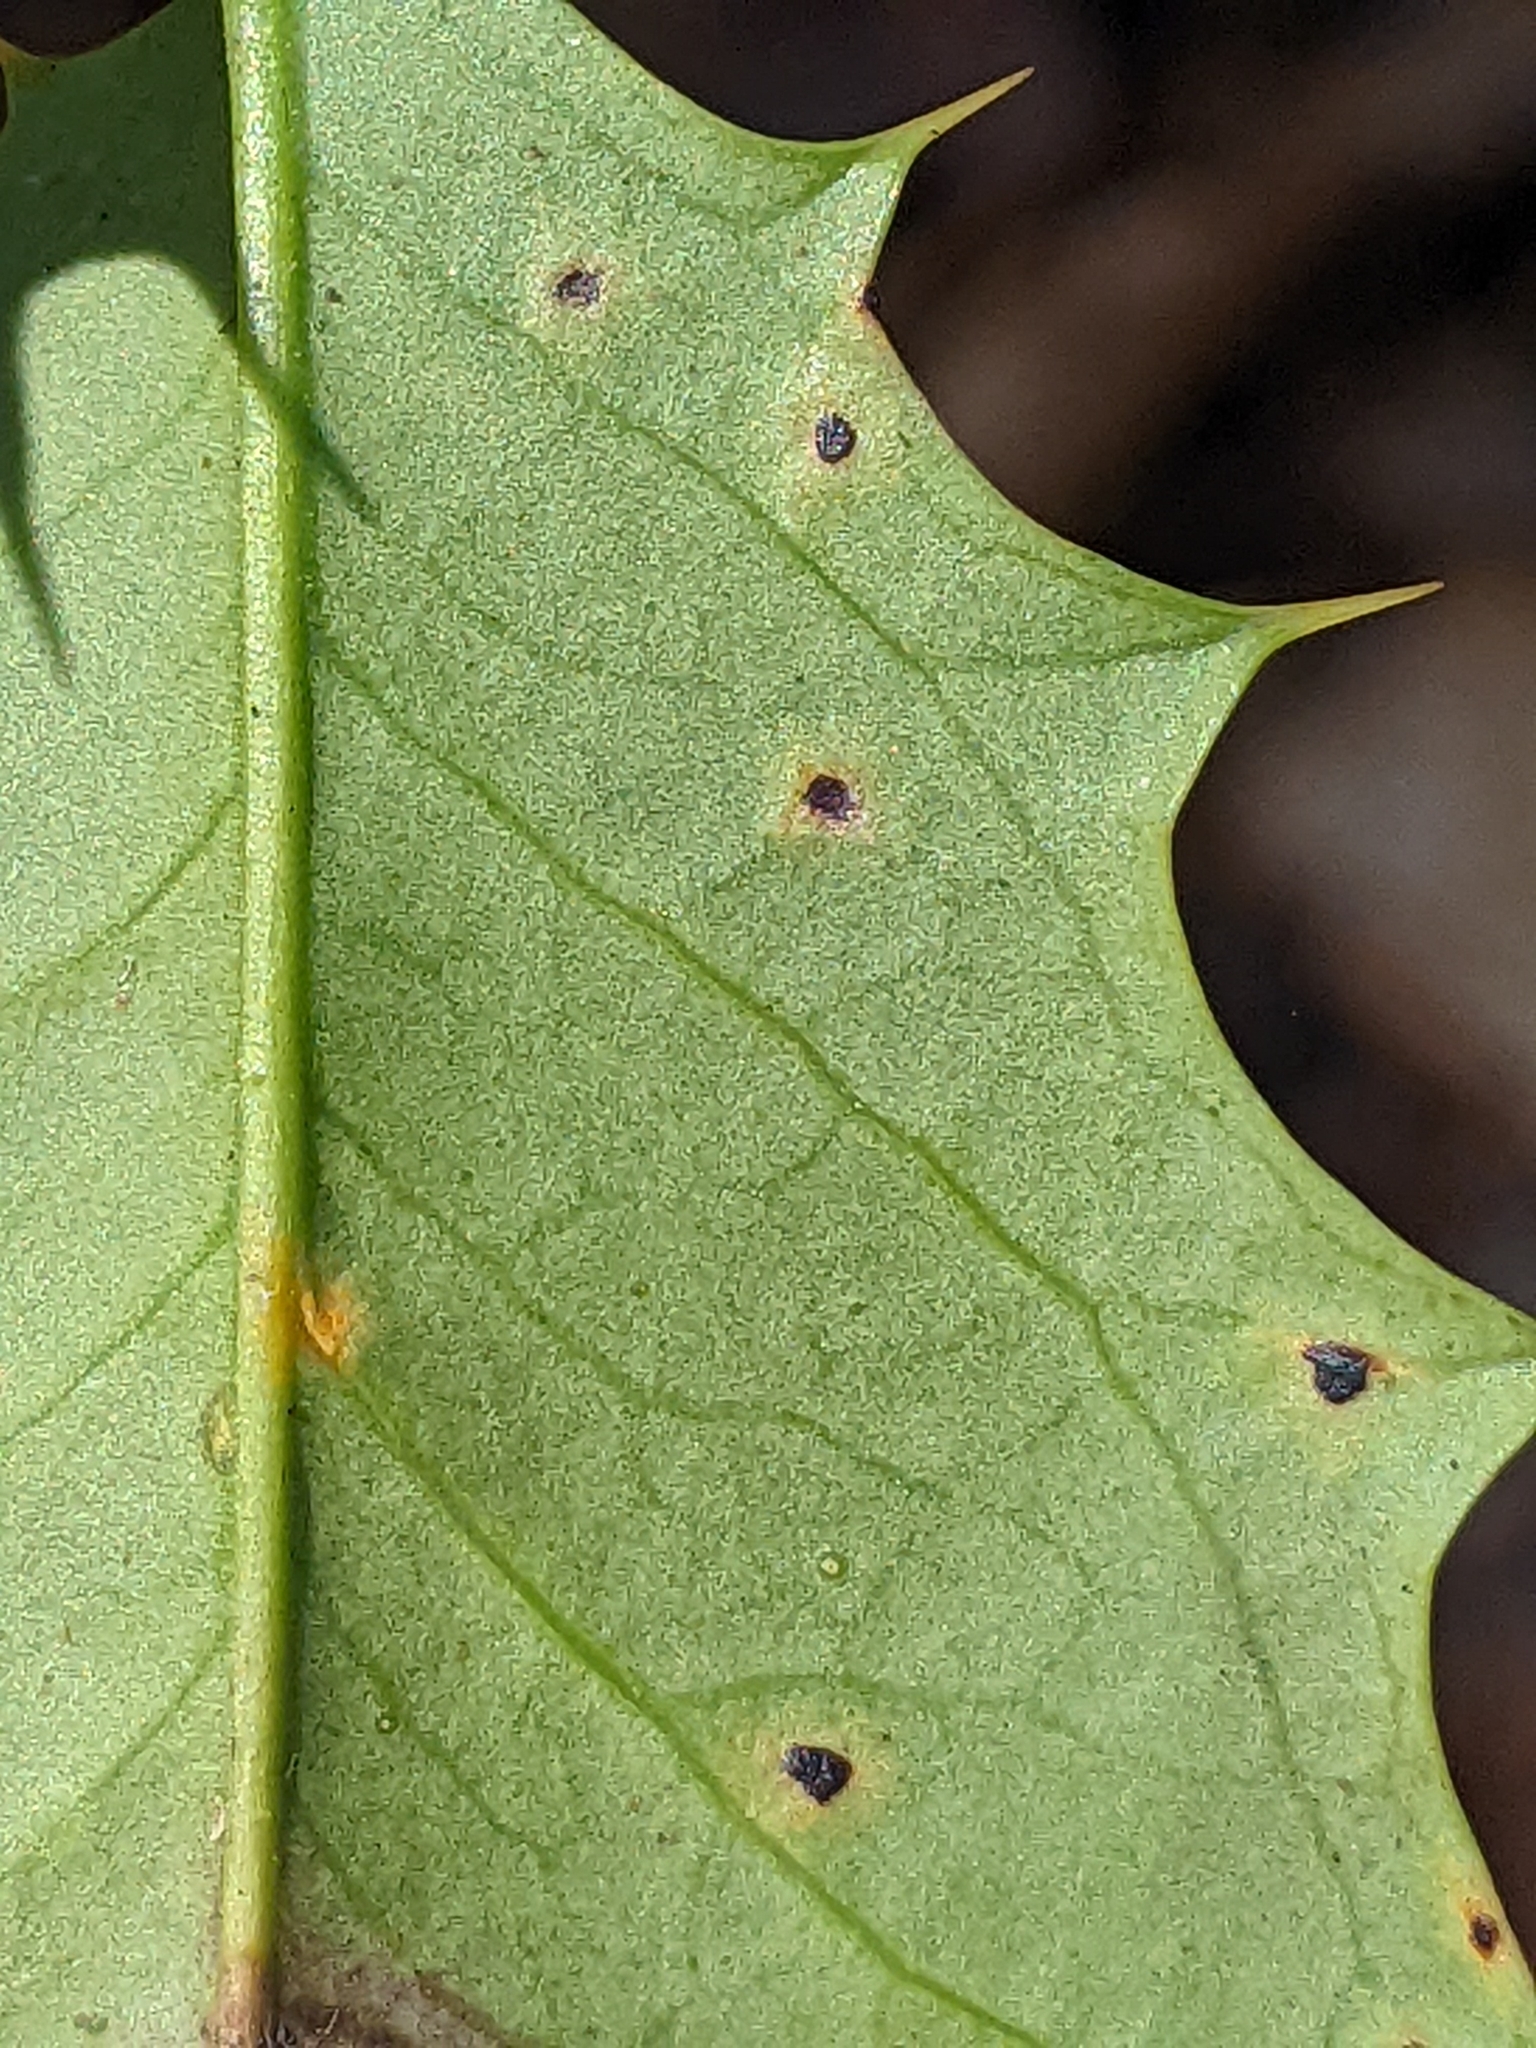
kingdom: Plantae
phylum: Tracheophyta
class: Magnoliopsida
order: Aquifoliales
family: Aquifoliaceae
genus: Ilex
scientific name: Ilex opaca
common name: American holly
